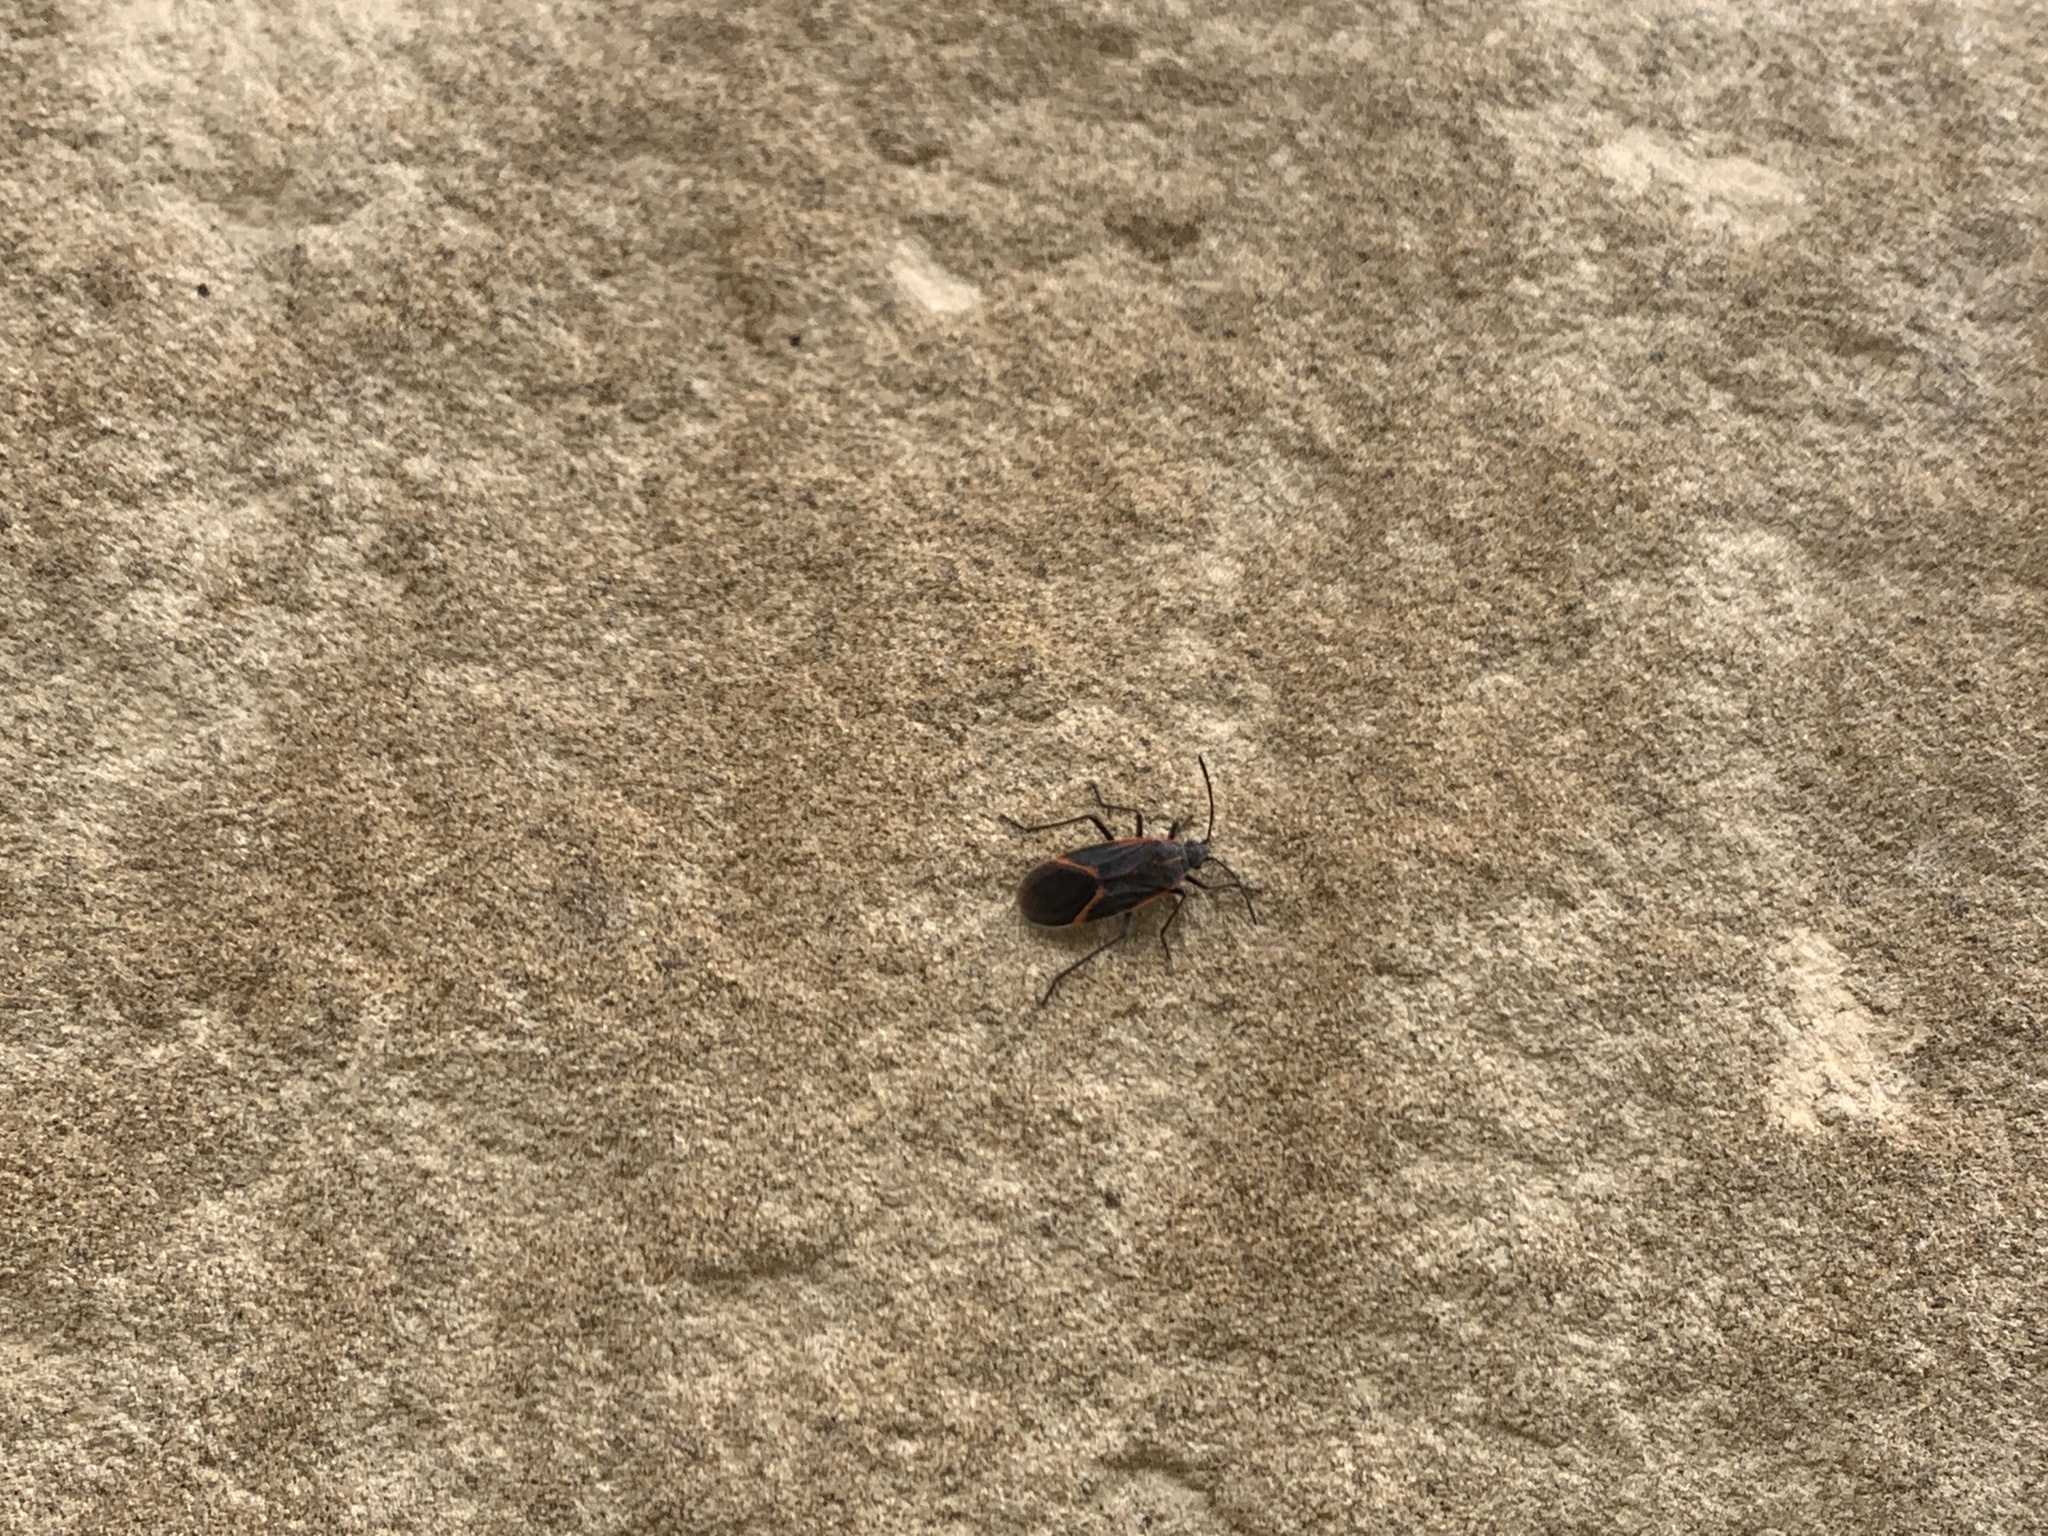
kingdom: Animalia
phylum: Arthropoda
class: Insecta
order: Hemiptera
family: Rhopalidae
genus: Boisea
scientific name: Boisea trivittata
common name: Boxelder bug
